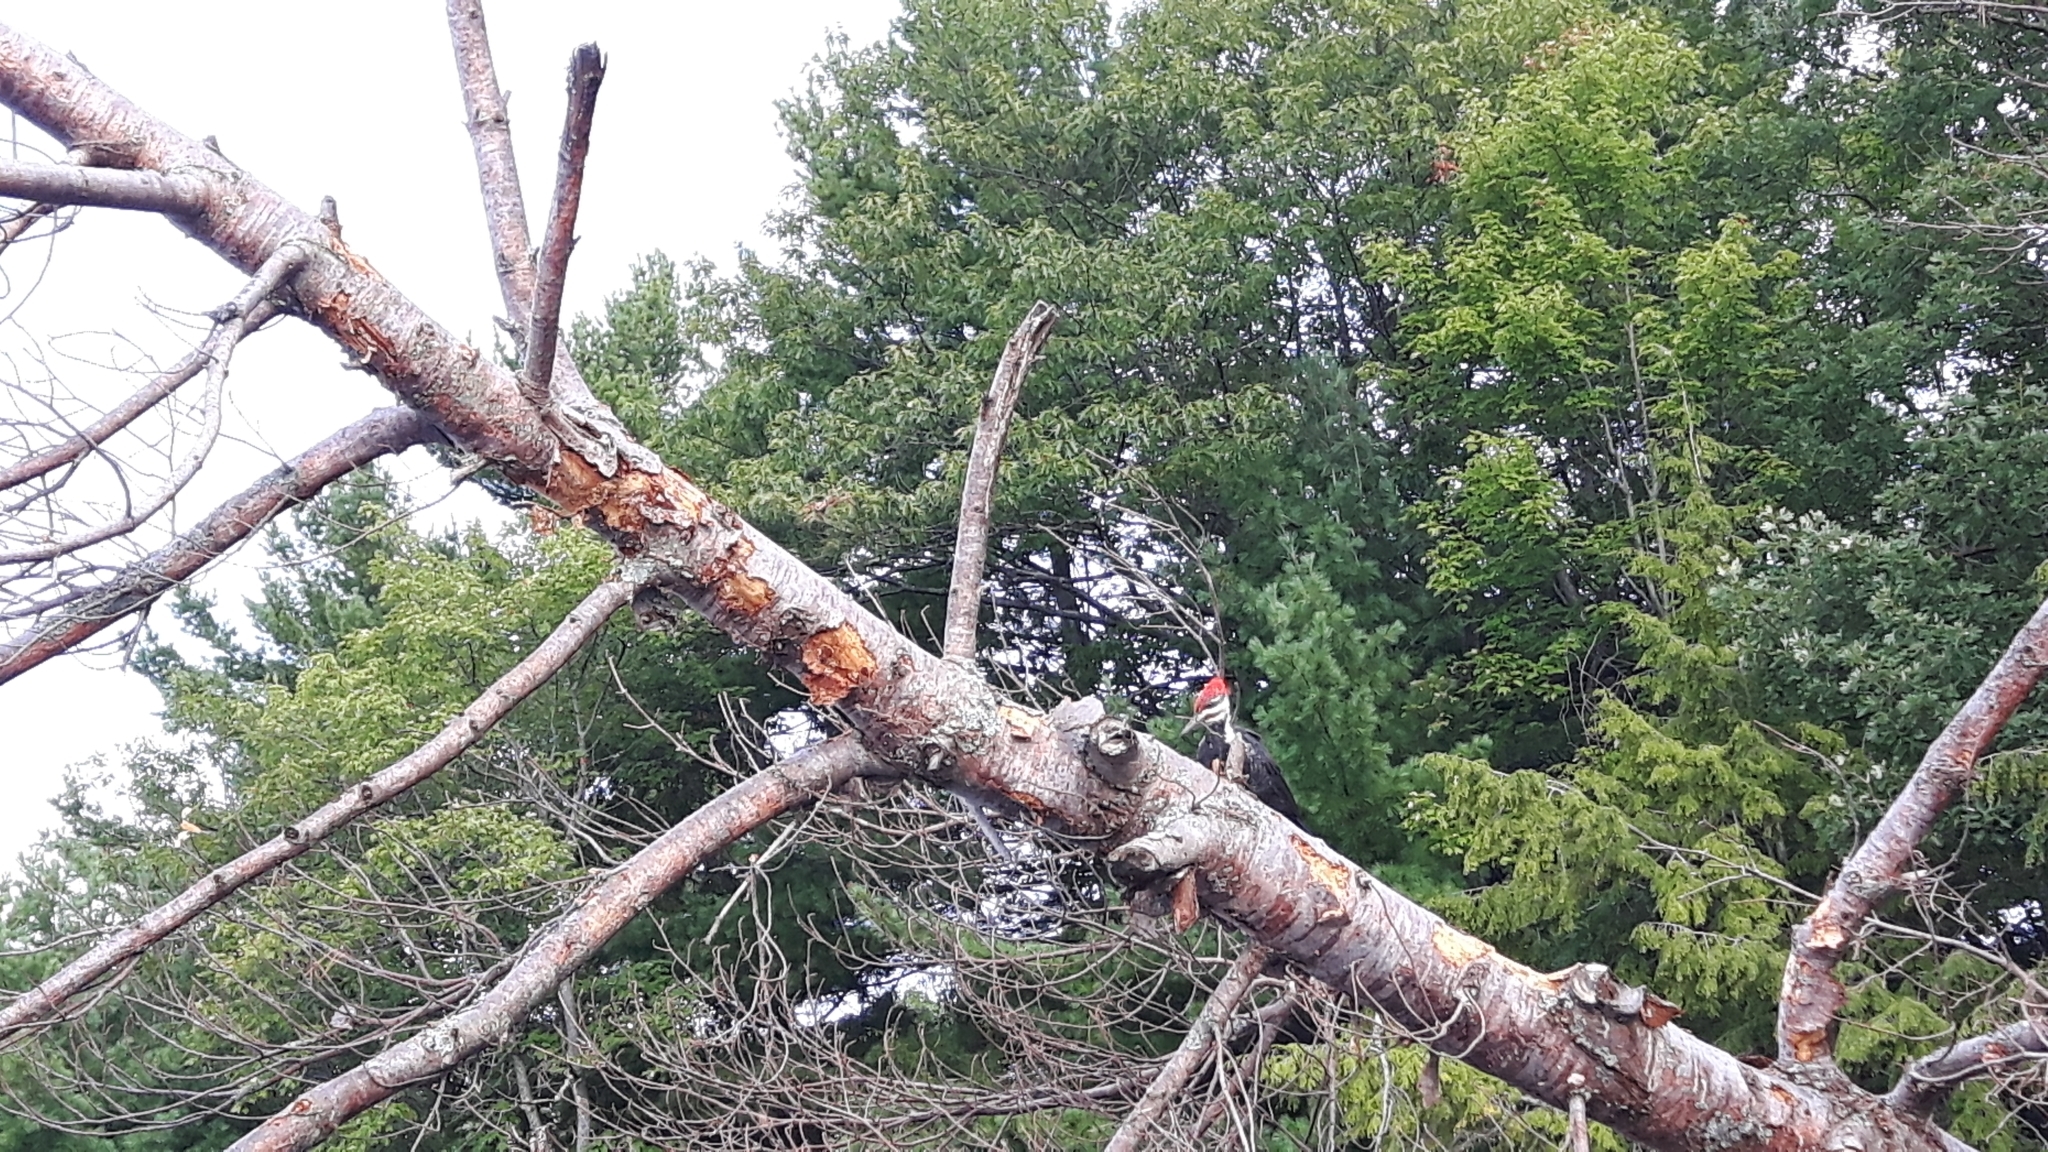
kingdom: Animalia
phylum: Chordata
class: Aves
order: Piciformes
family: Picidae
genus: Dryocopus
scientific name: Dryocopus pileatus
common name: Pileated woodpecker
